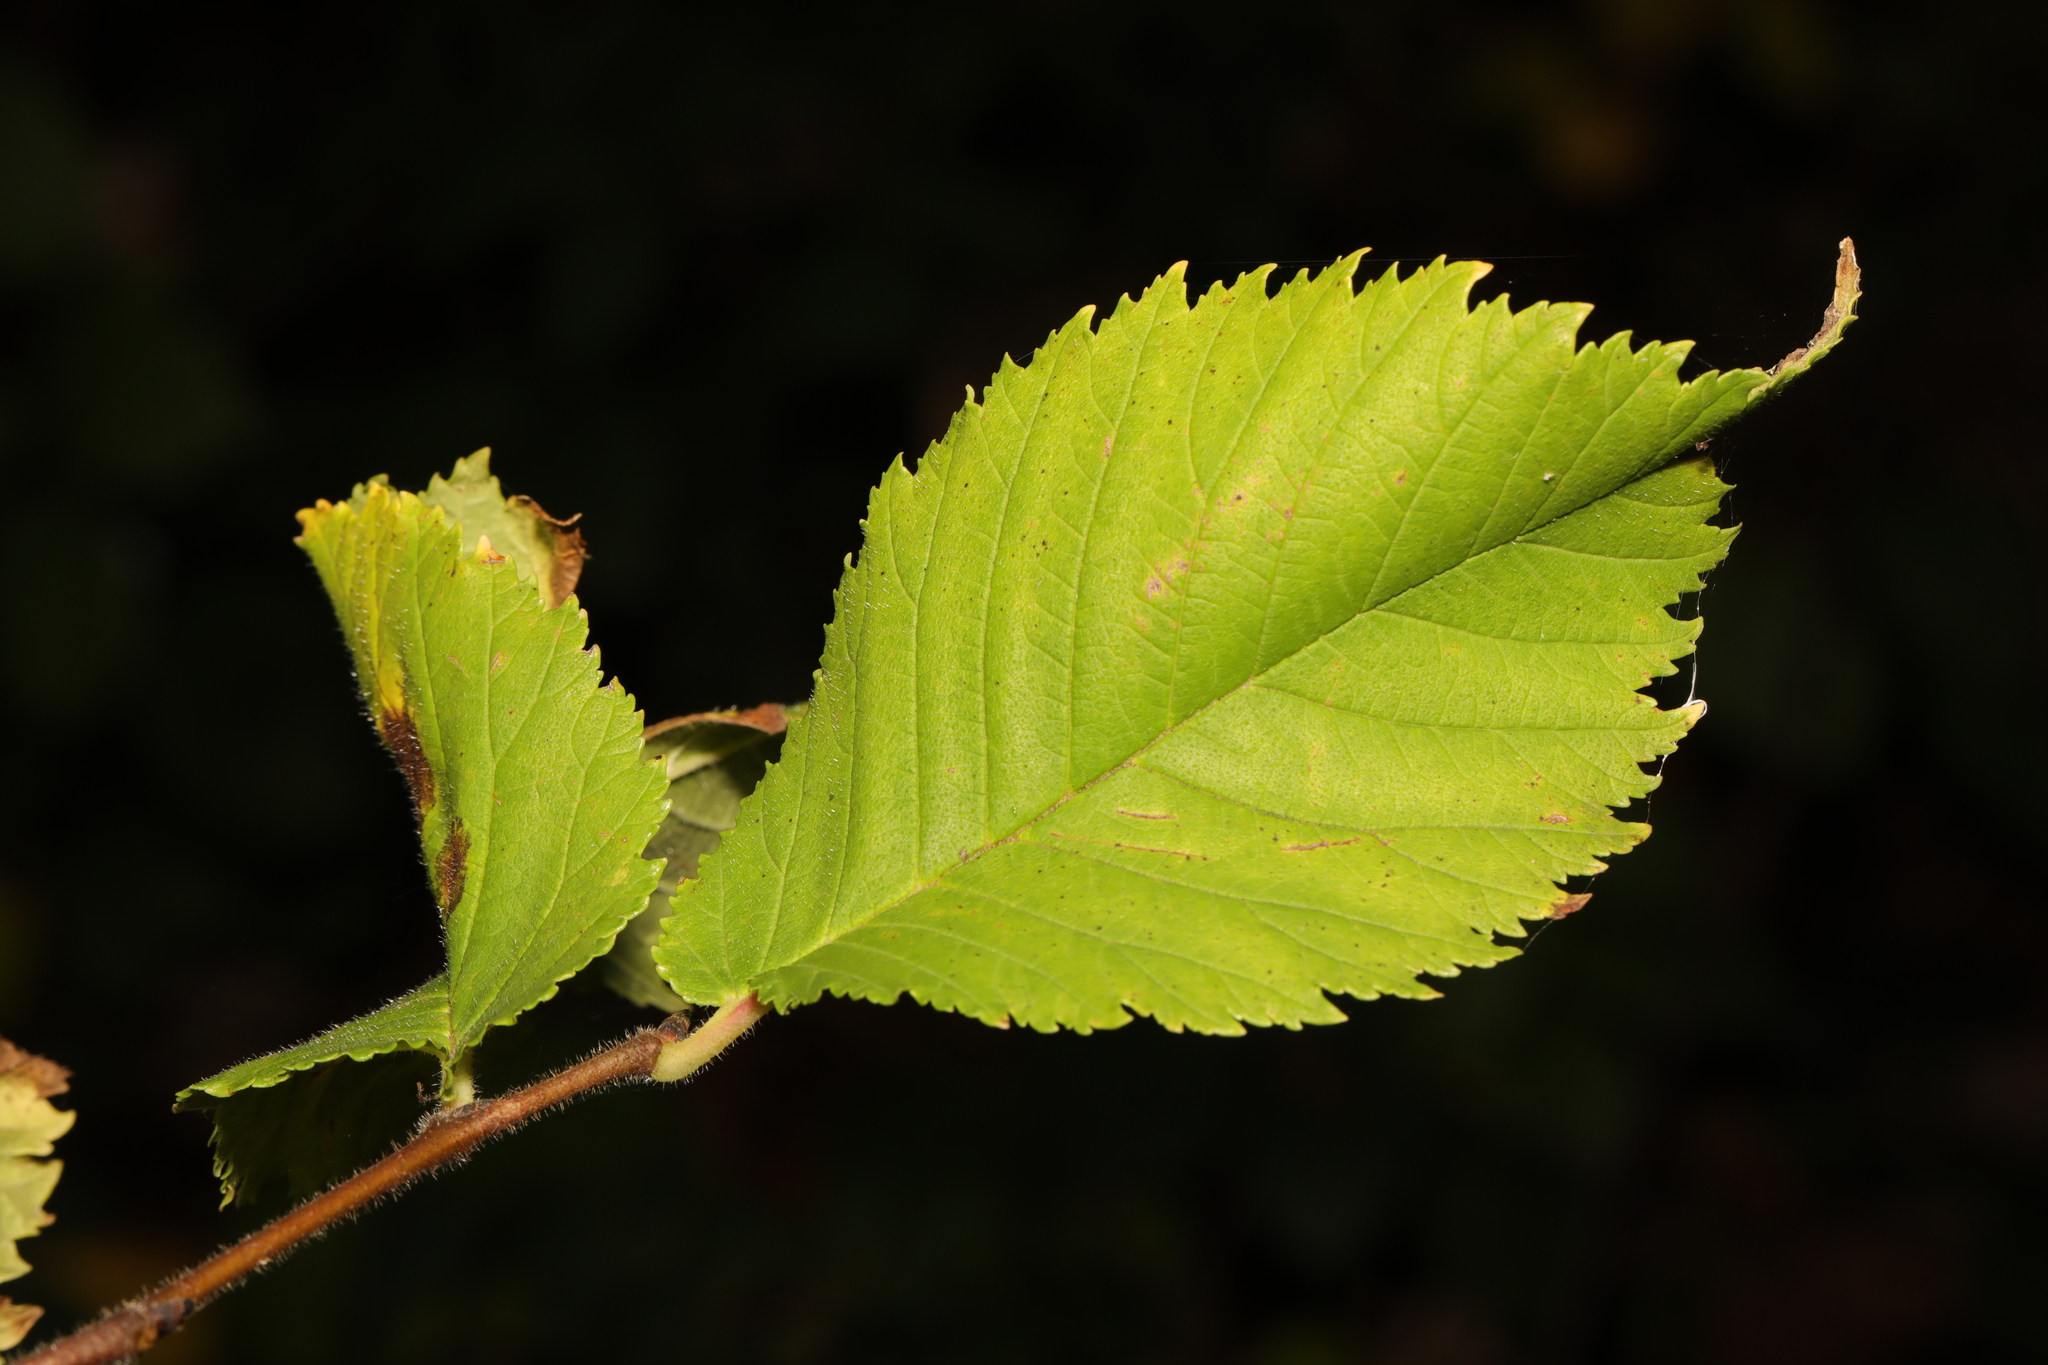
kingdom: Plantae
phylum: Tracheophyta
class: Magnoliopsida
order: Rosales
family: Ulmaceae
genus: Ulmus
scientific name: Ulmus glabra
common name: Wych elm
